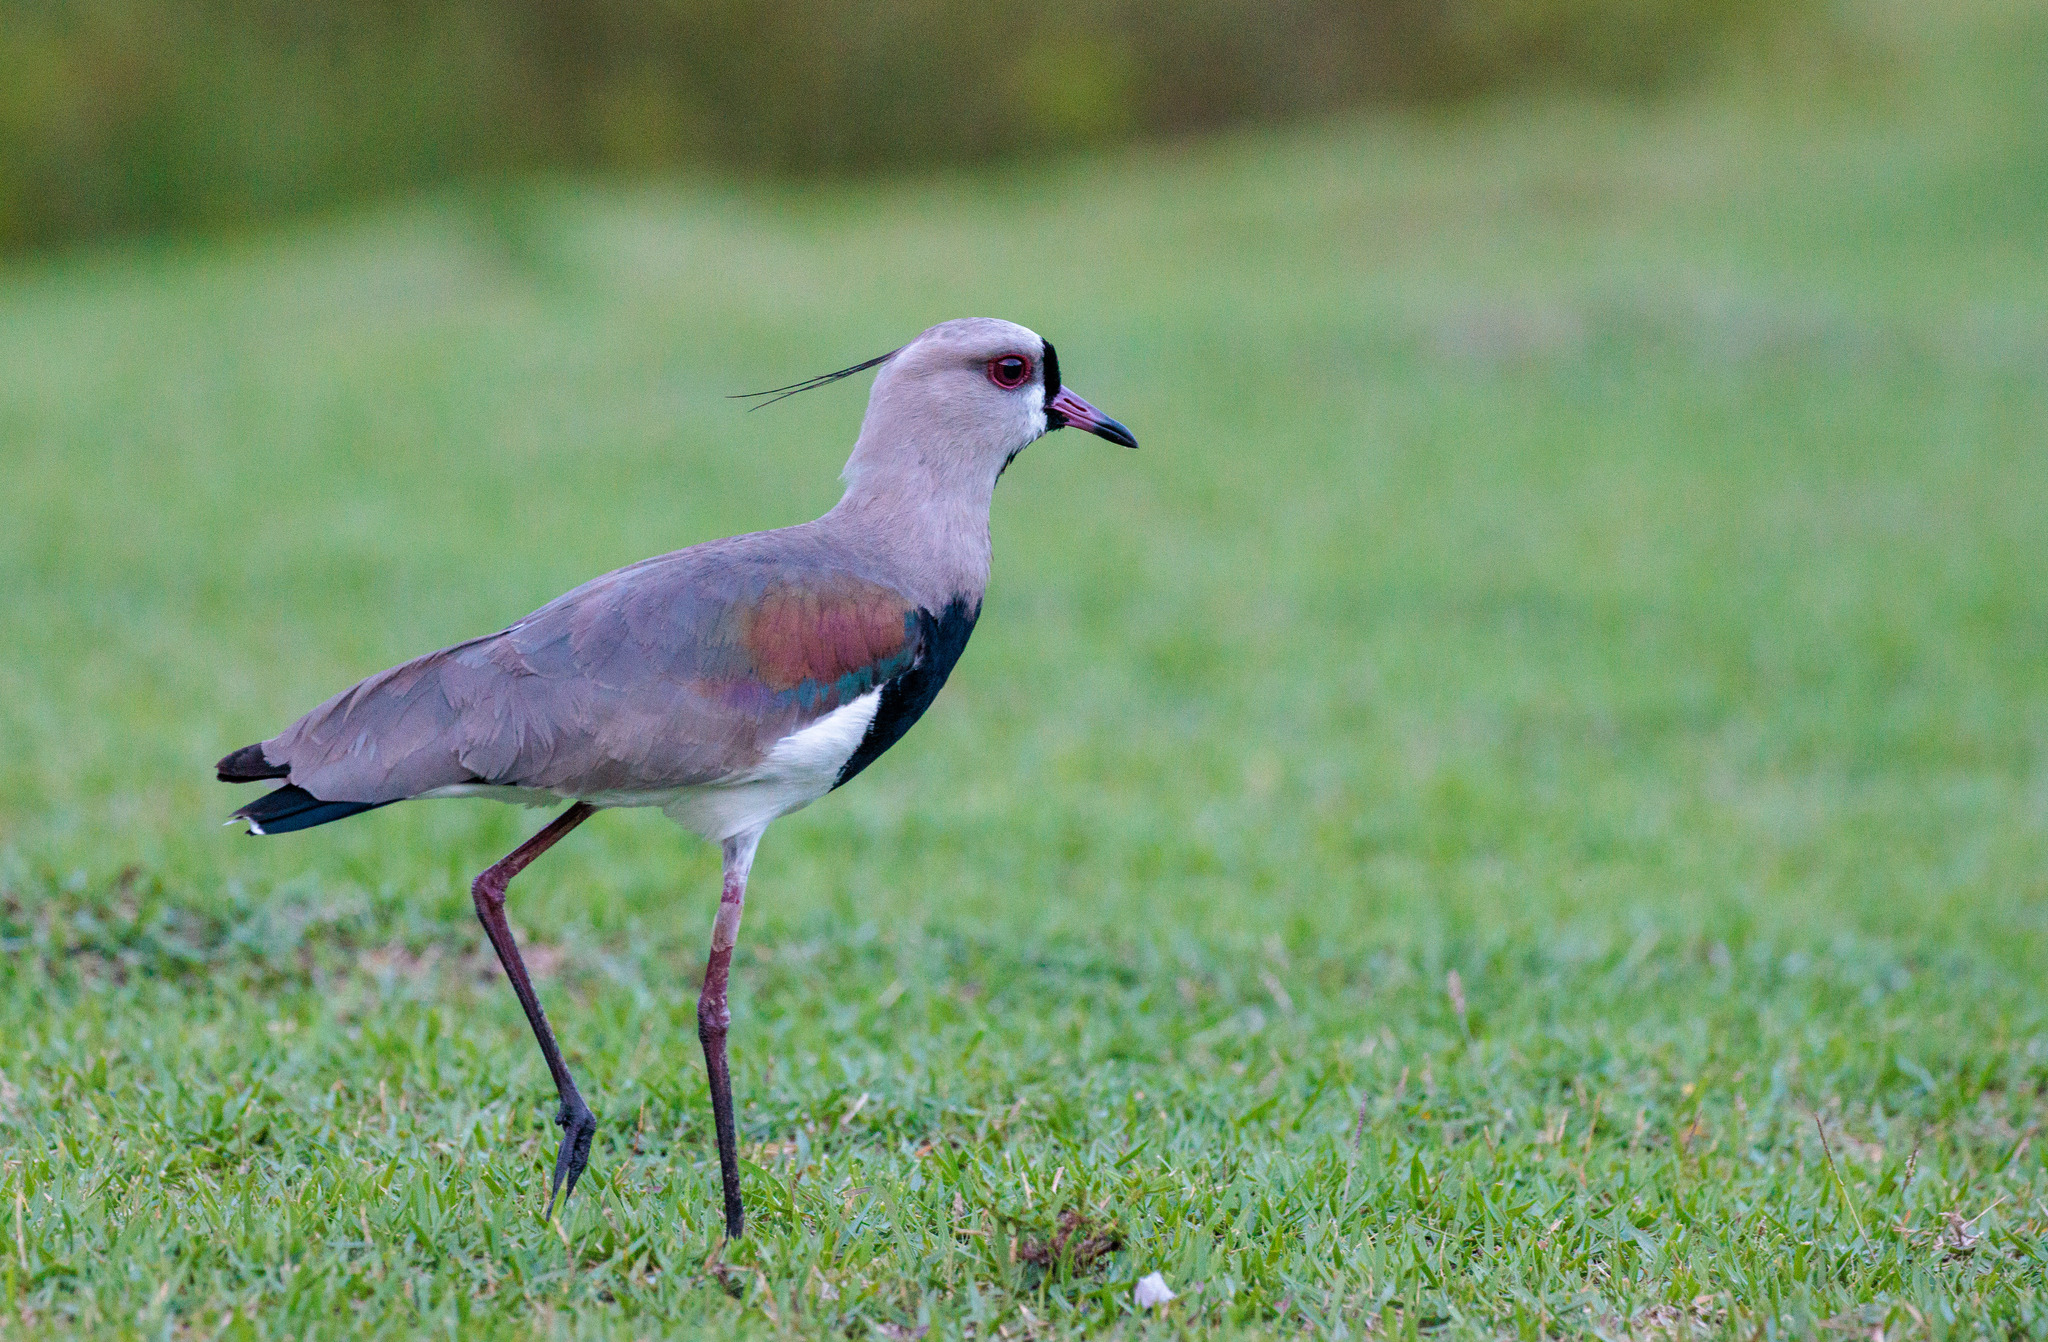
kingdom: Animalia
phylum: Chordata
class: Aves
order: Charadriiformes
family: Charadriidae
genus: Vanellus
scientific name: Vanellus chilensis
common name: Southern lapwing
